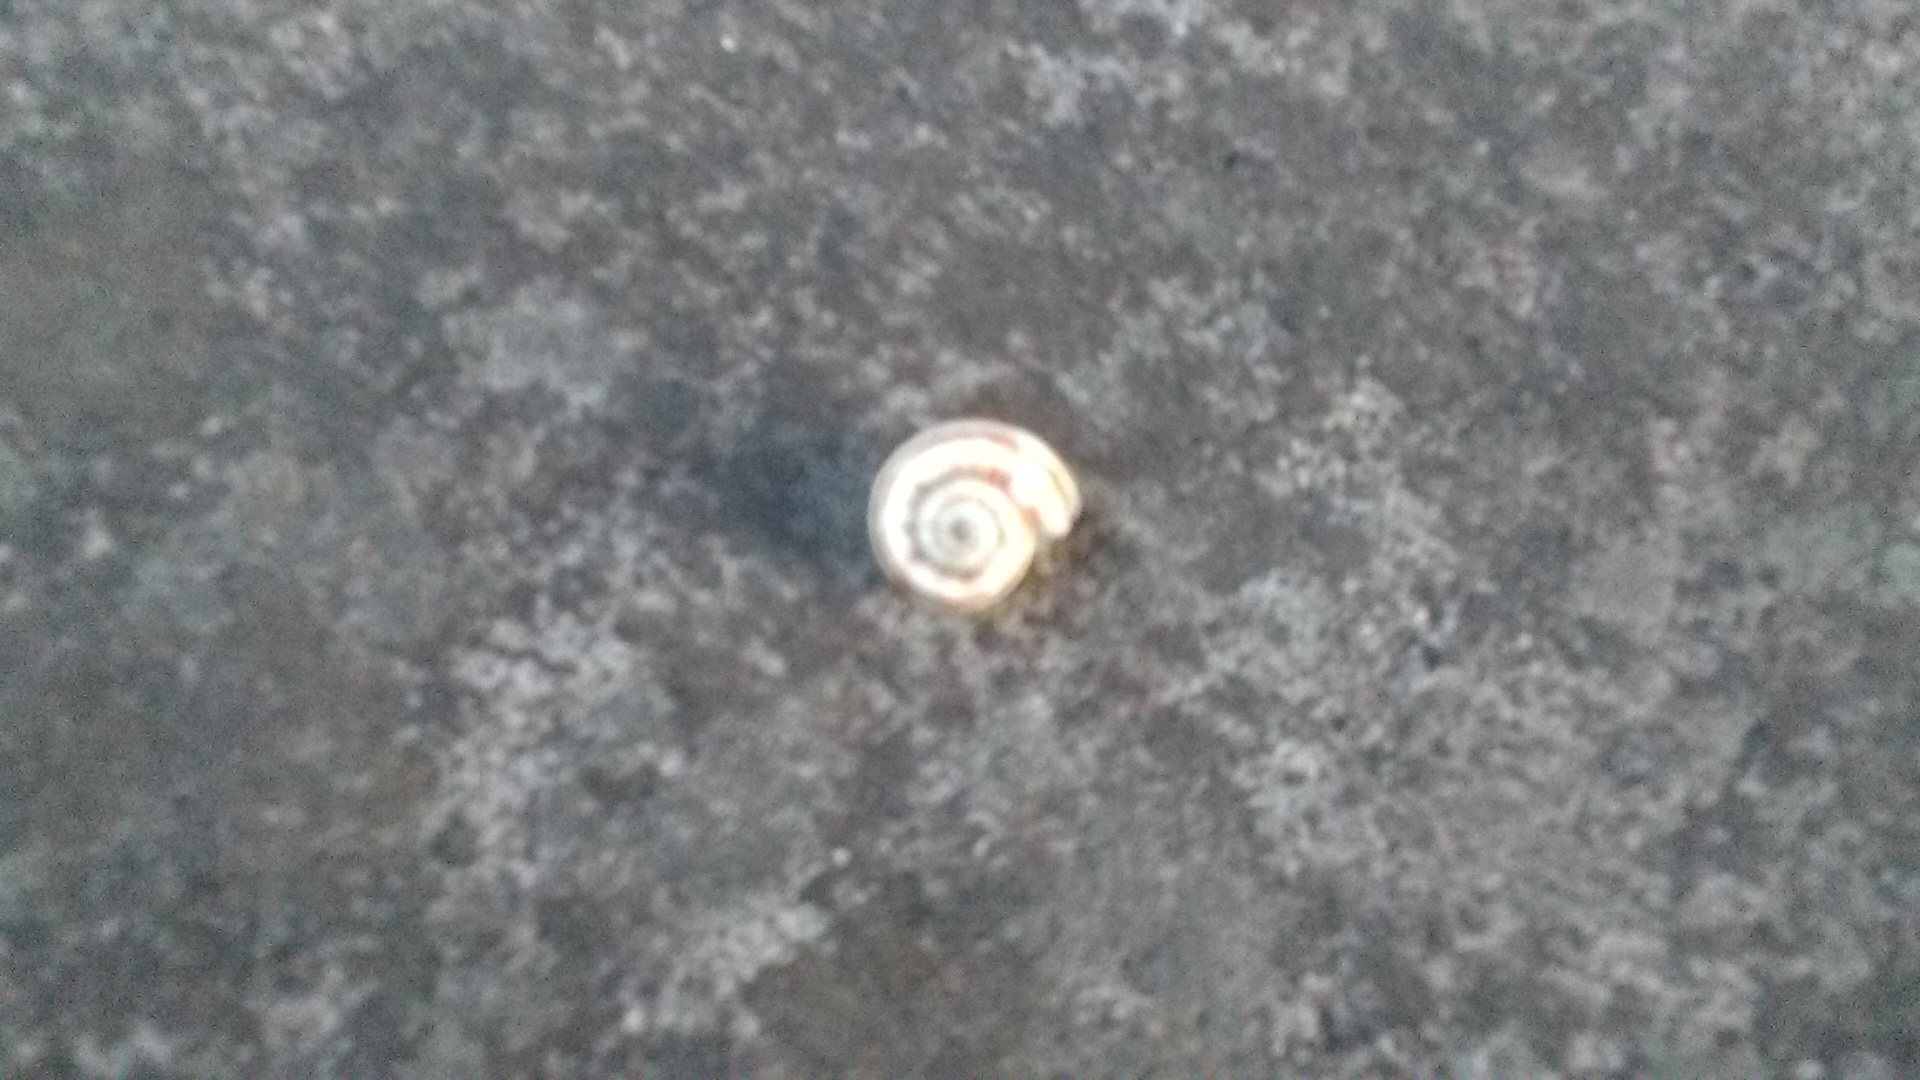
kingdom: Animalia
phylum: Mollusca
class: Gastropoda
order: Stylommatophora
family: Geomitridae
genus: Xeropicta
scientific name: Xeropicta derbentina
